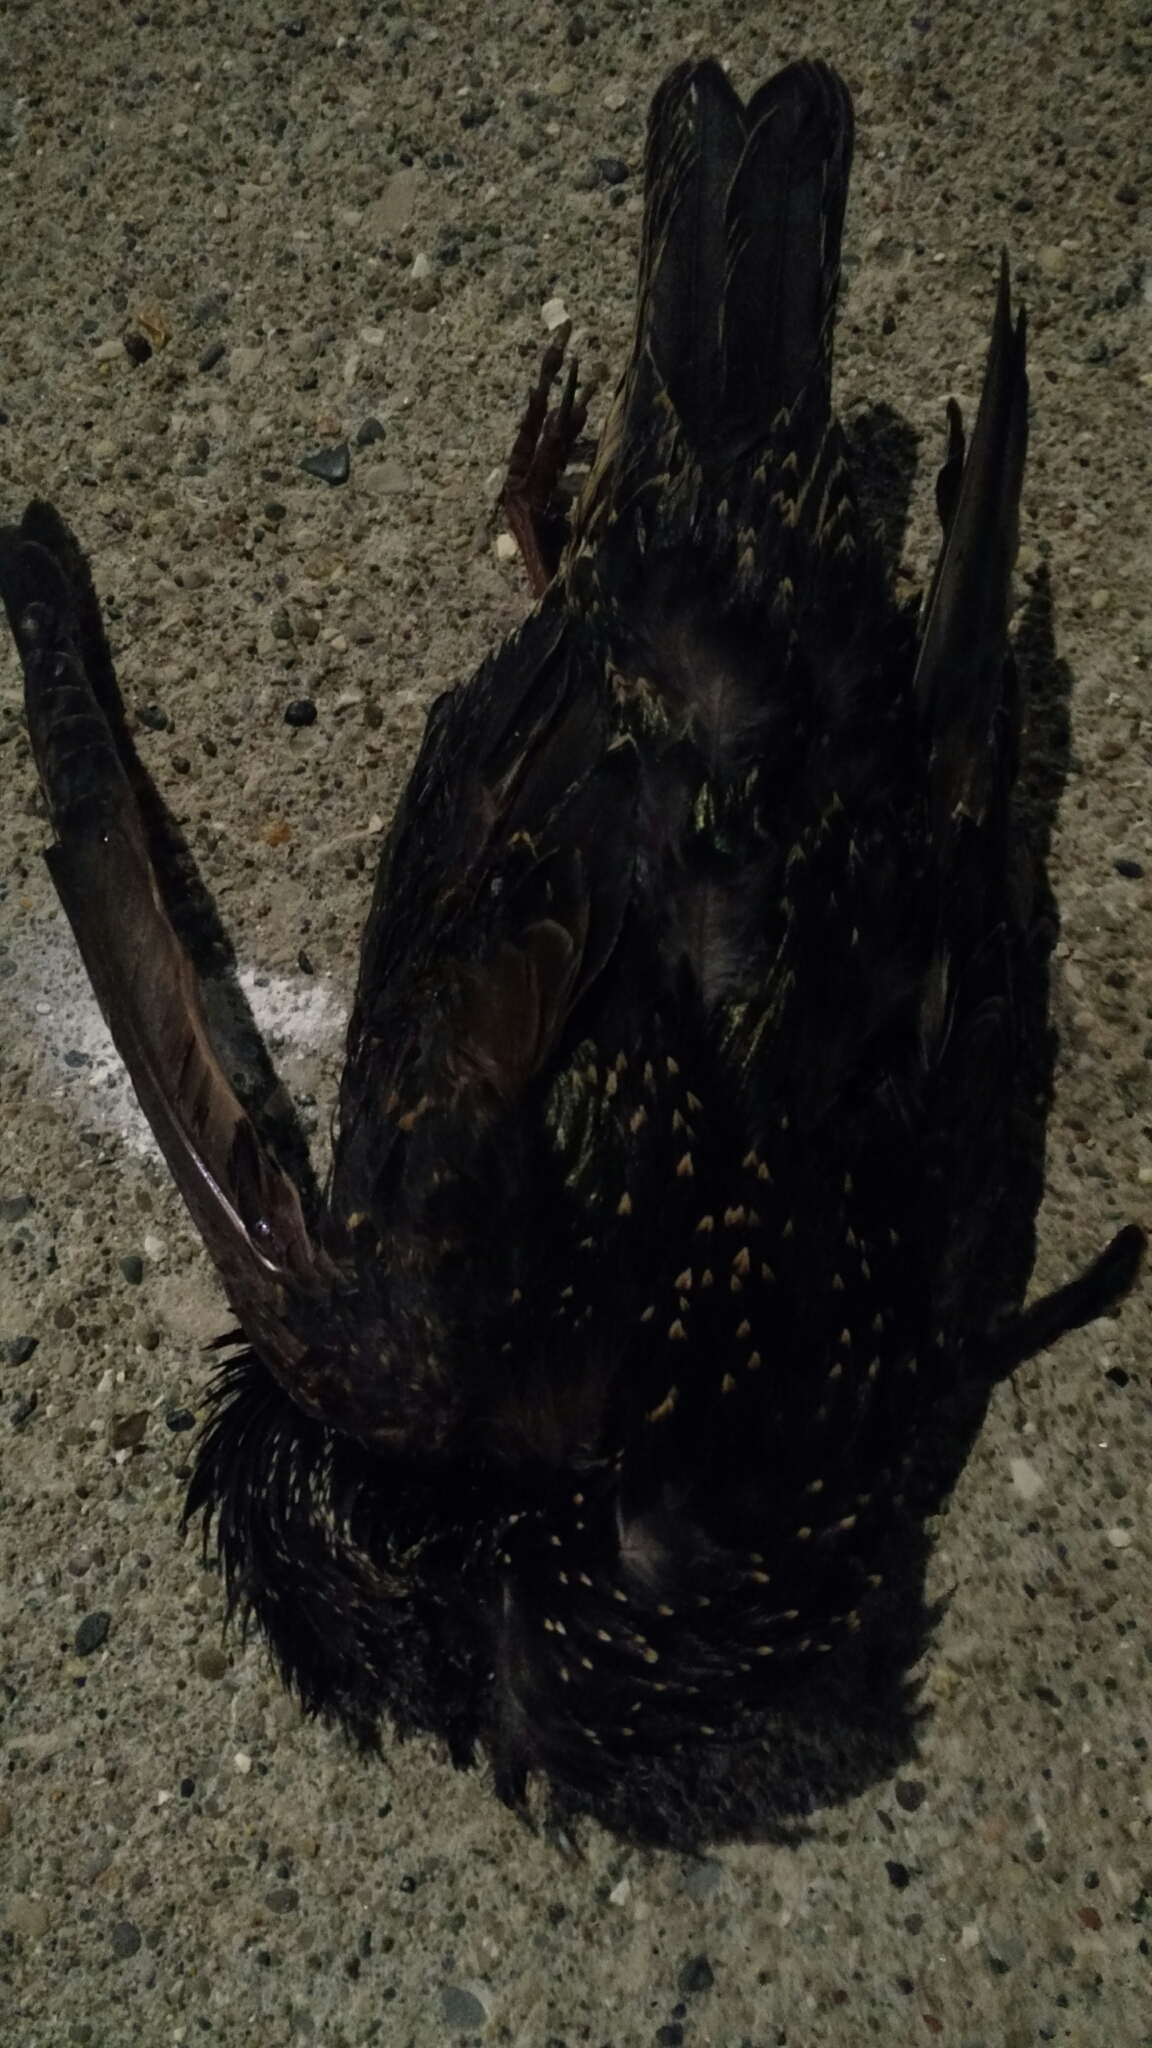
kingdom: Animalia
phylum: Chordata
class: Aves
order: Passeriformes
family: Sturnidae
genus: Sturnus
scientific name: Sturnus vulgaris
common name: Common starling
